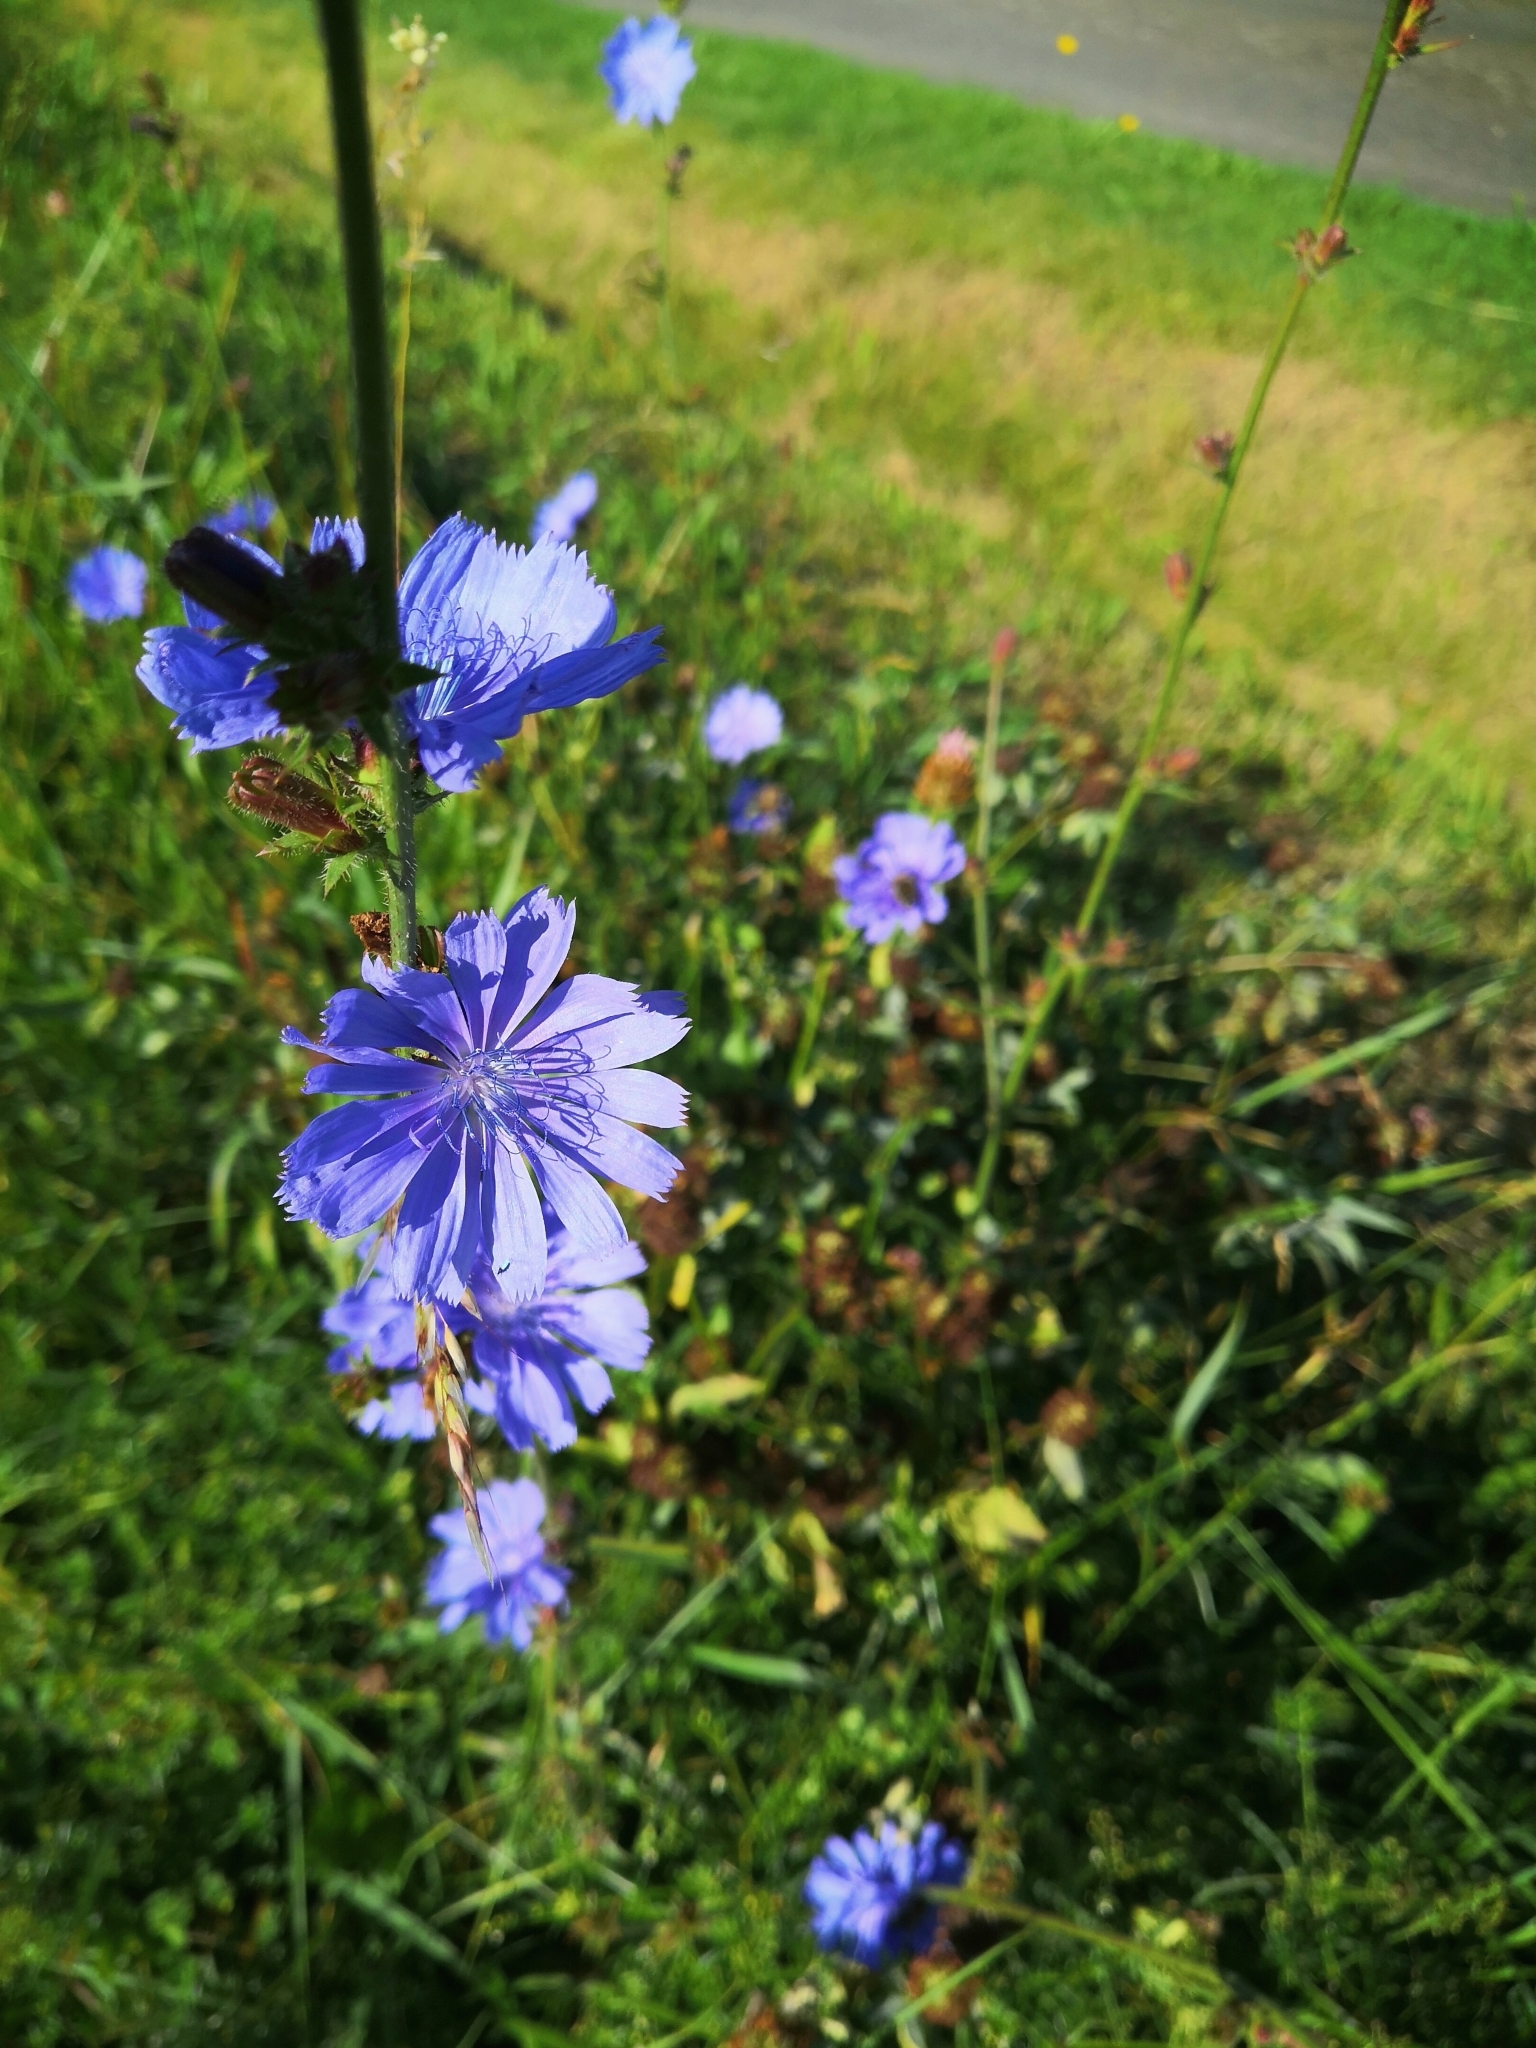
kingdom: Plantae
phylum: Tracheophyta
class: Magnoliopsida
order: Asterales
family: Asteraceae
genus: Cichorium
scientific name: Cichorium intybus
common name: Chicory
